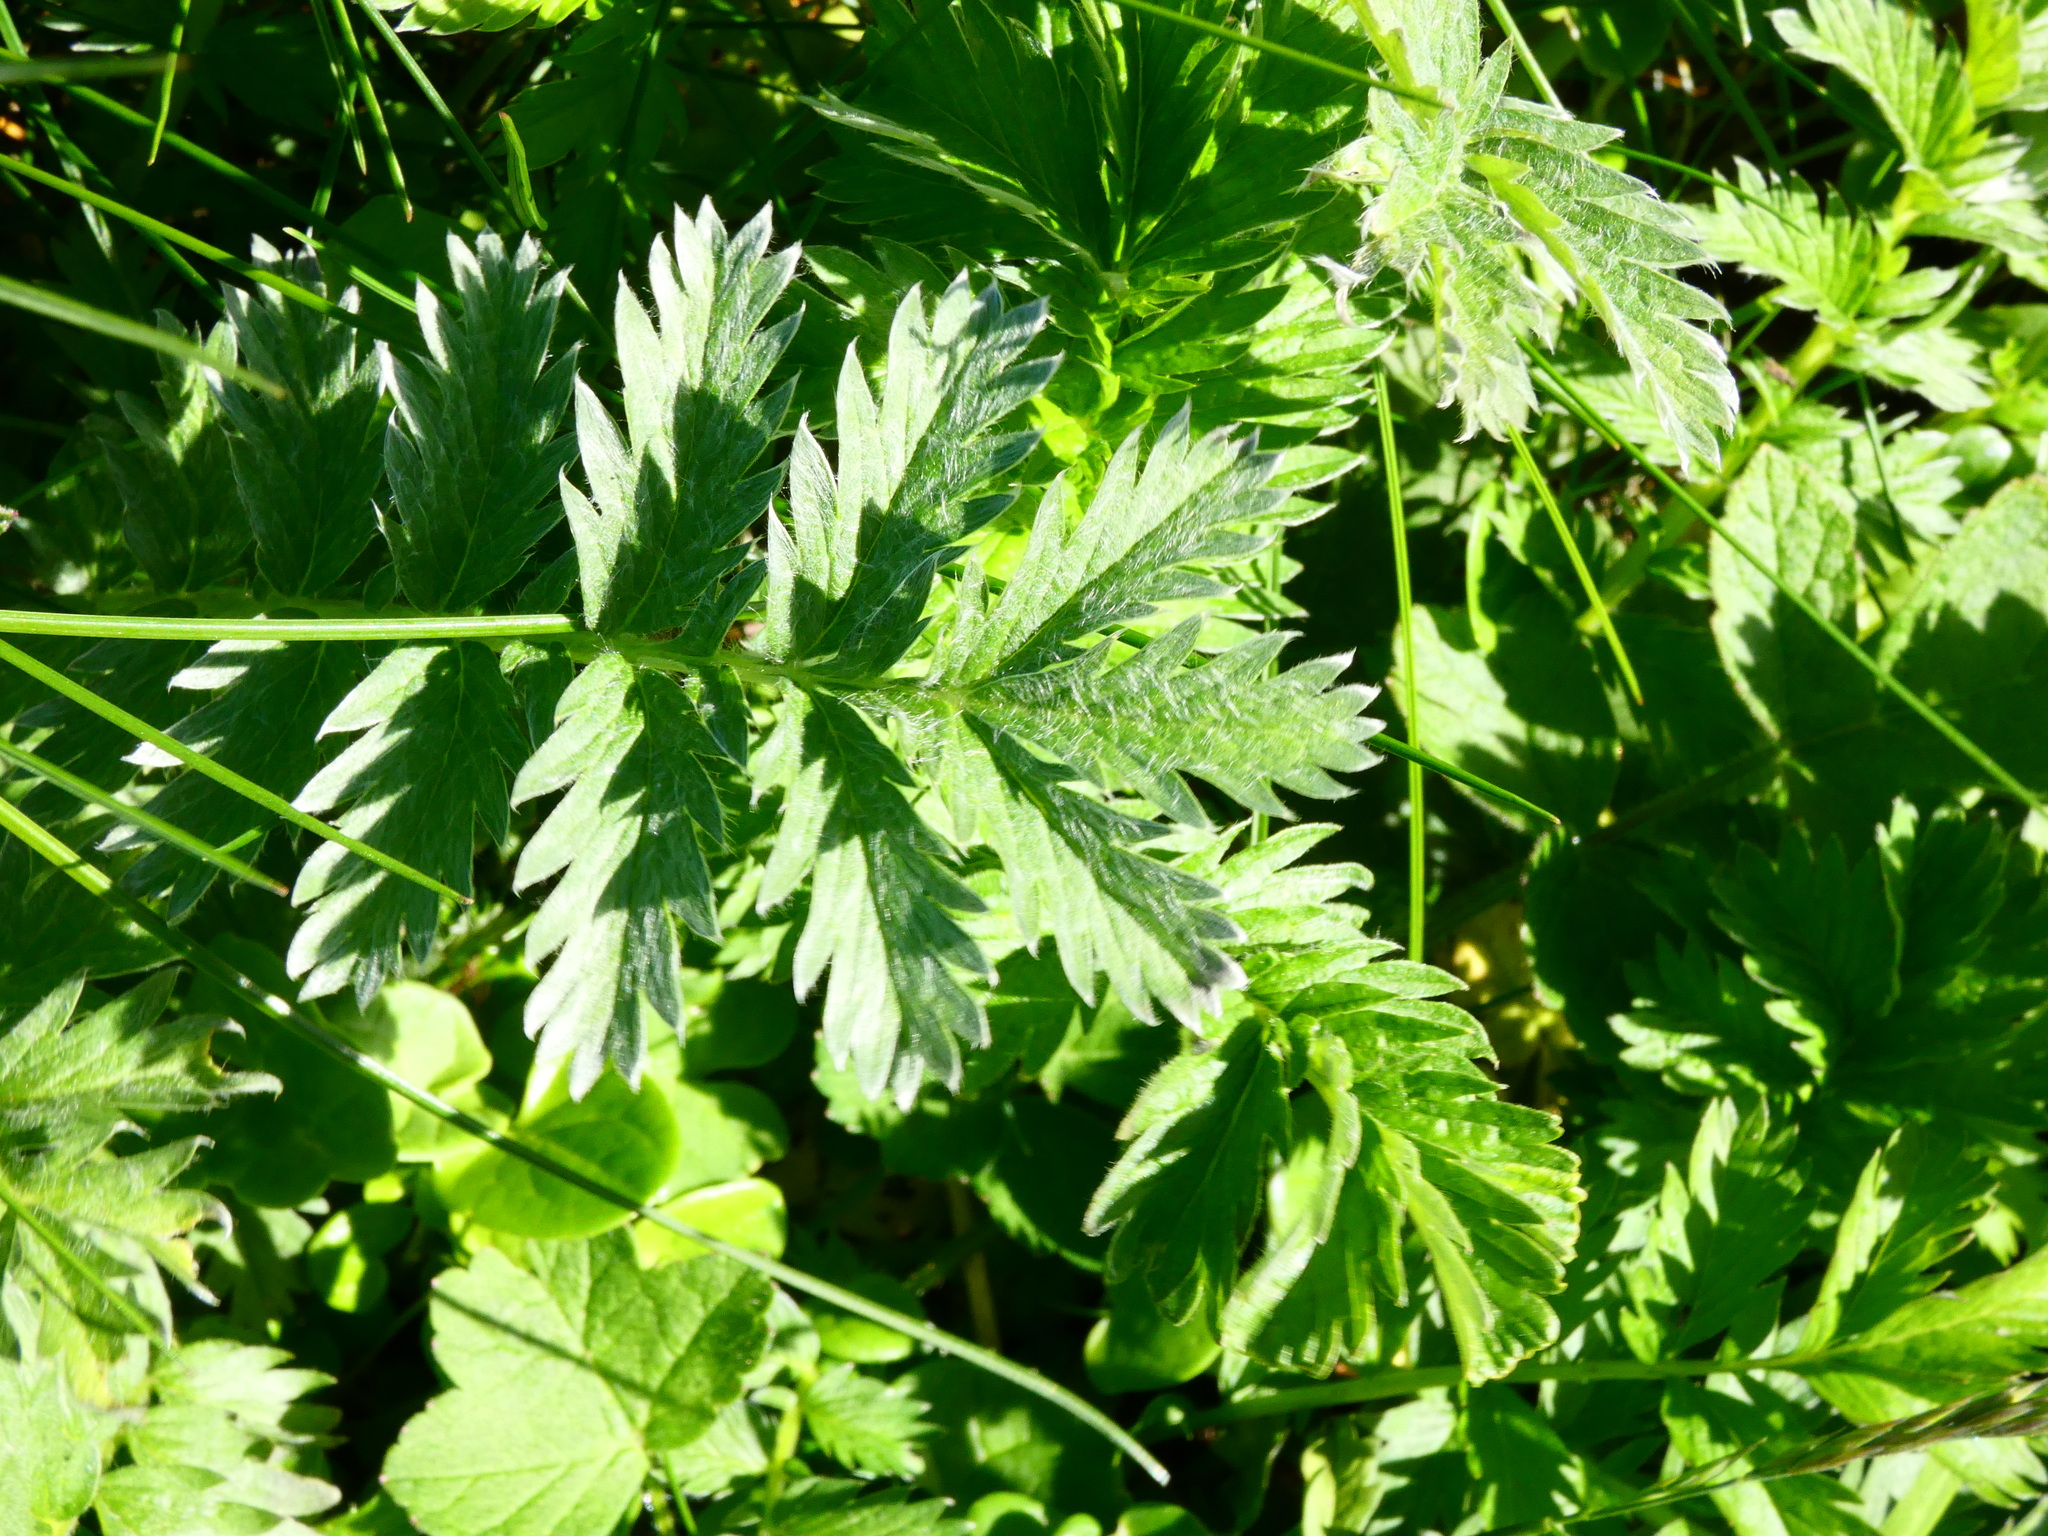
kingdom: Plantae
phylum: Tracheophyta
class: Magnoliopsida
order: Rosales
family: Rosaceae
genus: Argentina
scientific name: Argentina anserina
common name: Common silverweed
